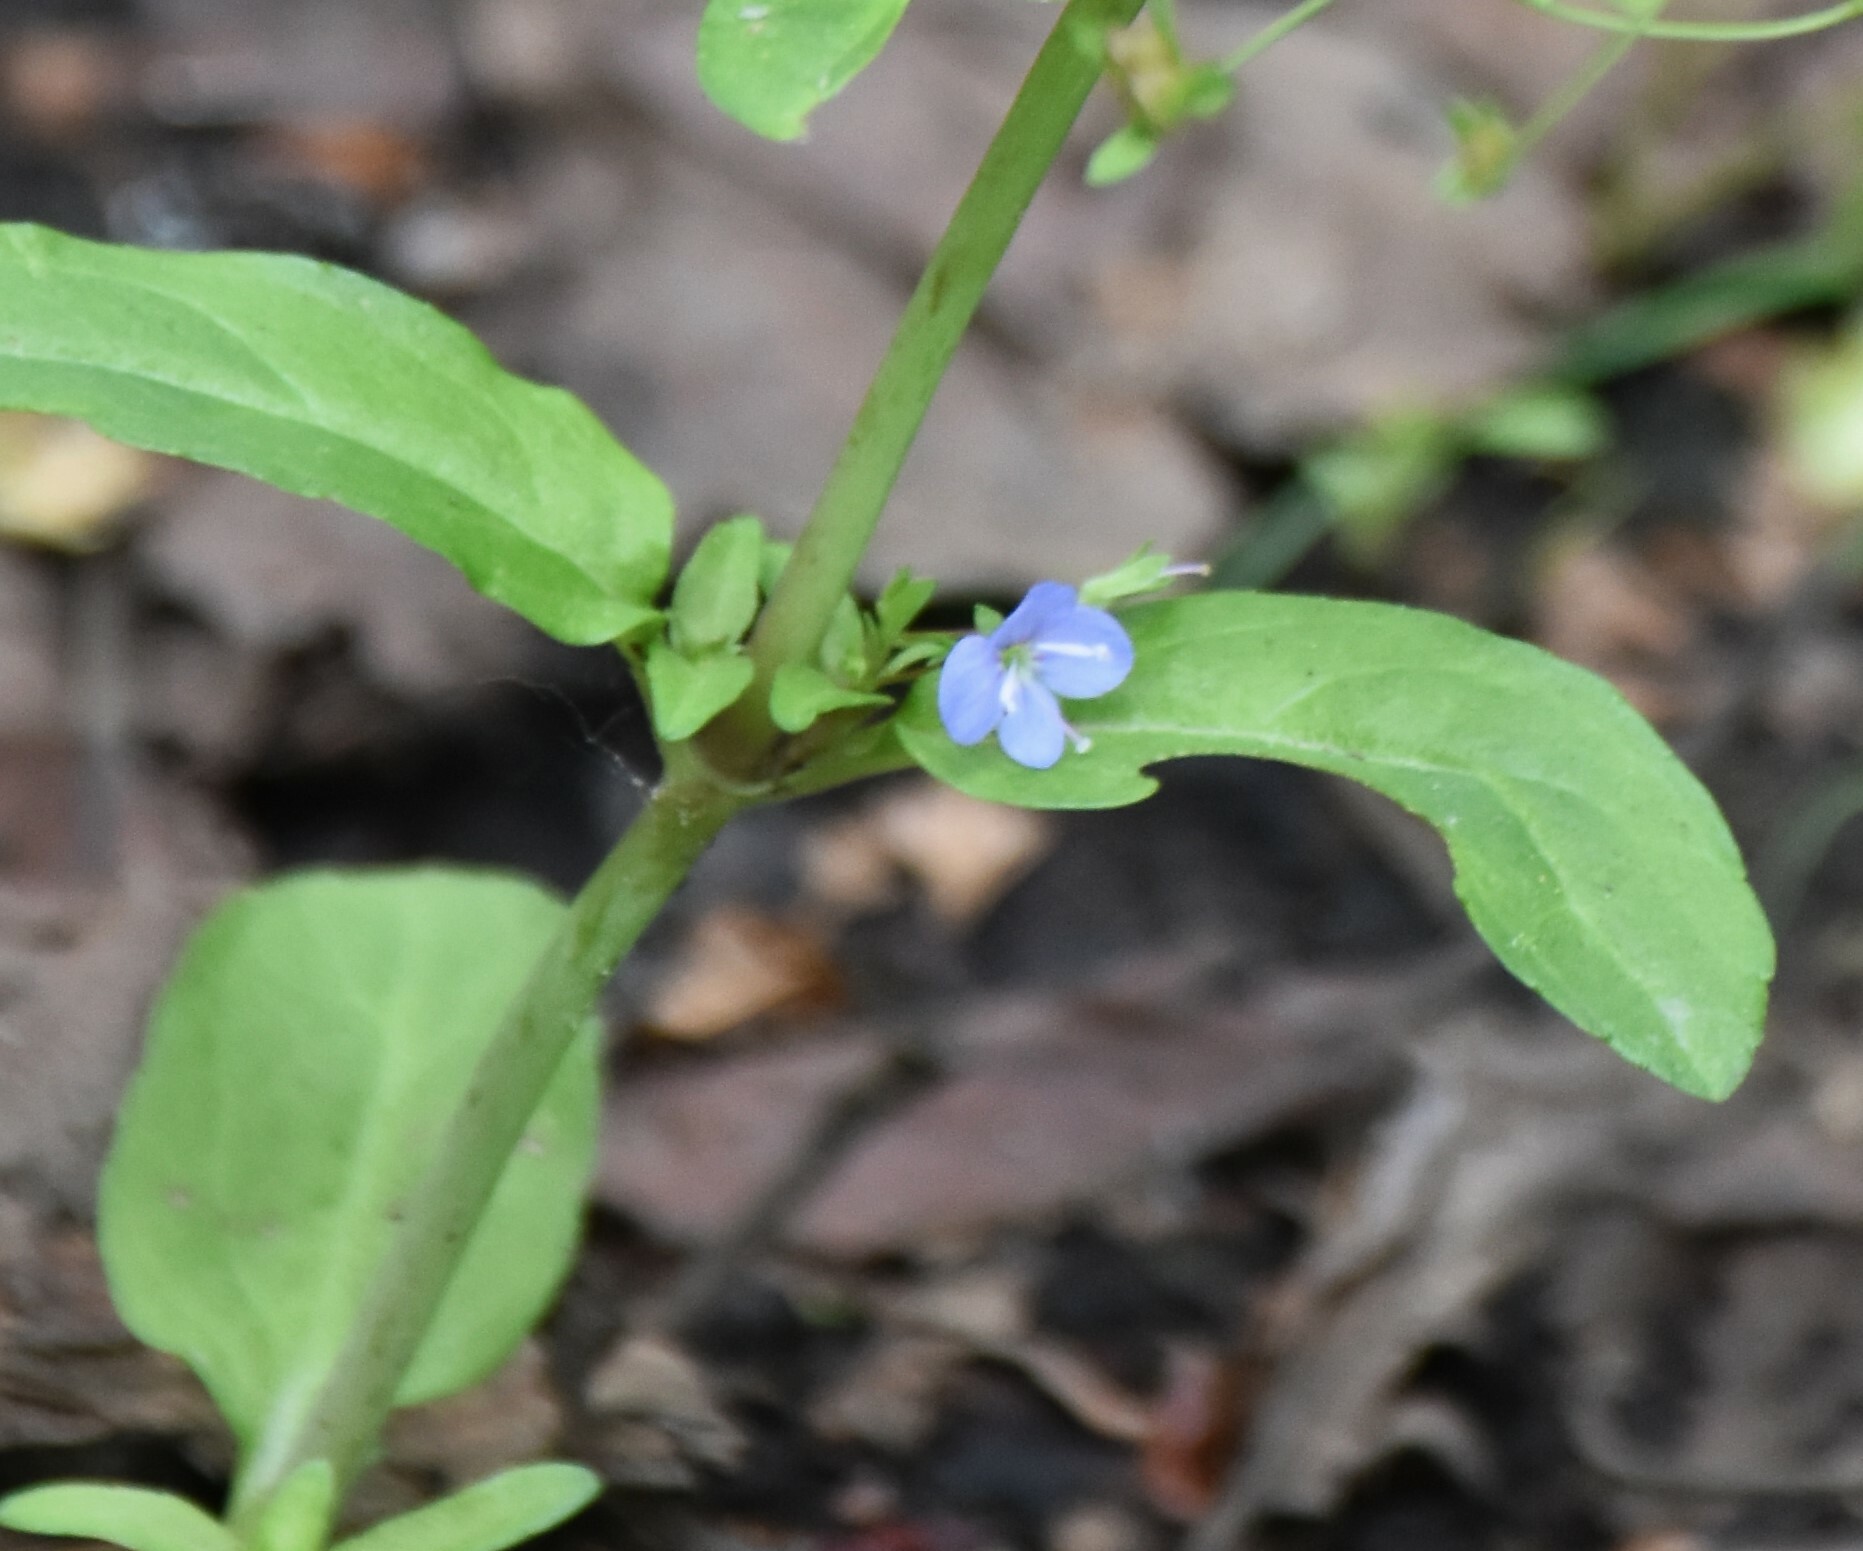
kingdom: Plantae
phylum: Tracheophyta
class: Magnoliopsida
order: Lamiales
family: Plantaginaceae
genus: Veronica
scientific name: Veronica americana
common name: American brooklime
